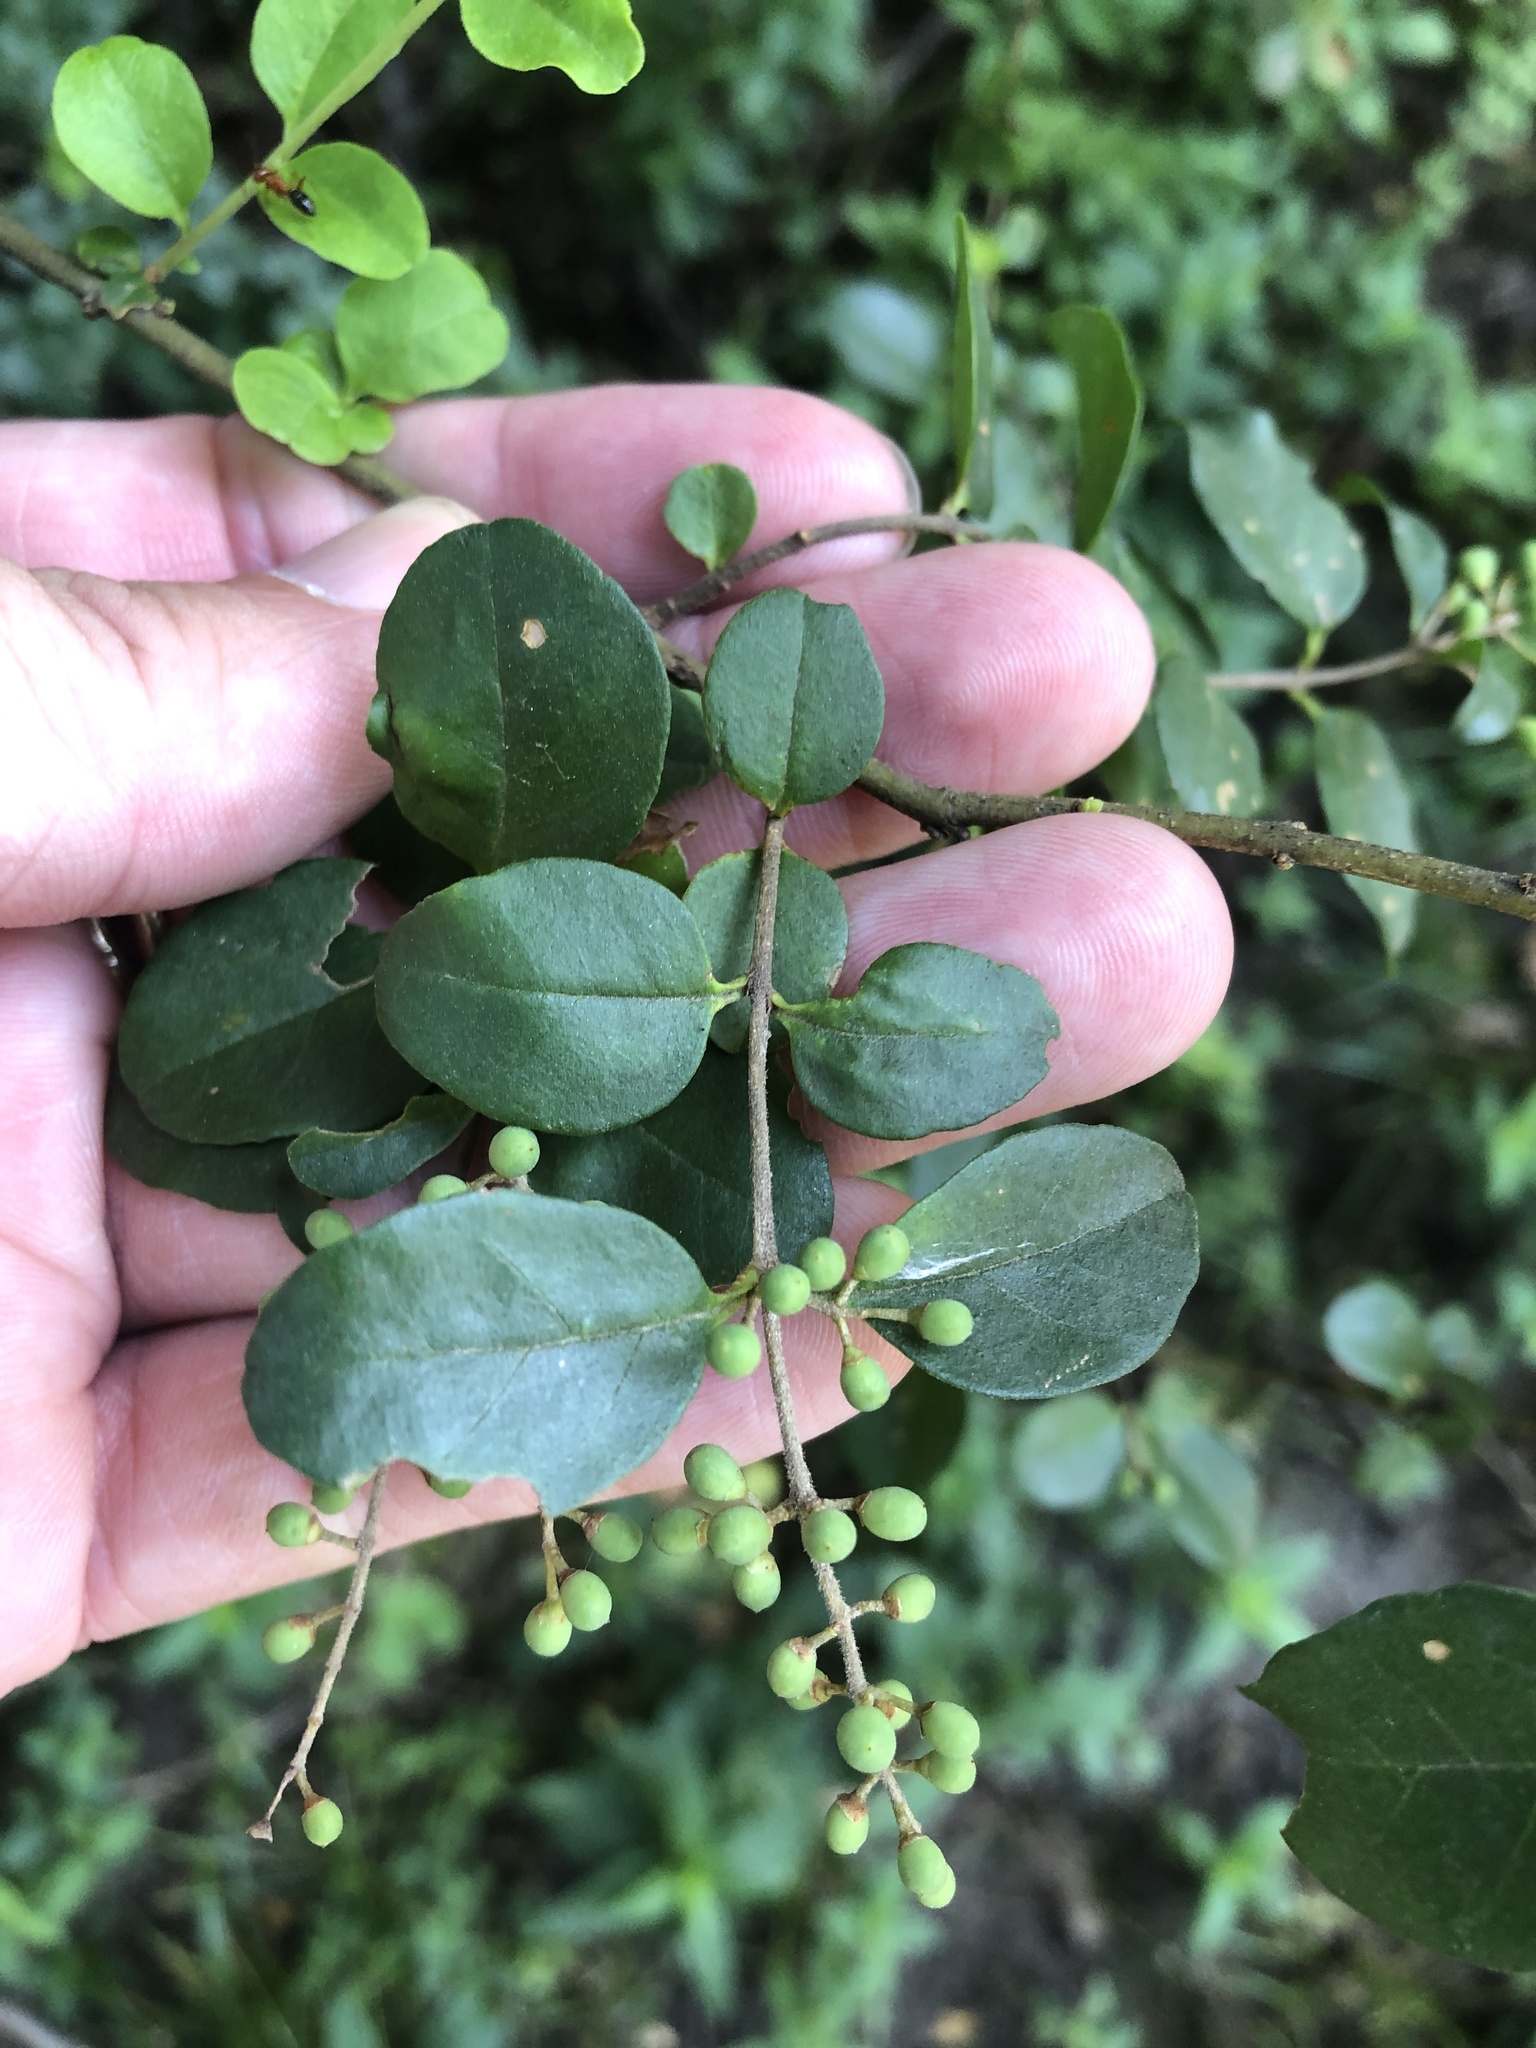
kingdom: Plantae
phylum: Tracheophyta
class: Magnoliopsida
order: Lamiales
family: Oleaceae
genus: Ligustrum
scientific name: Ligustrum sinense
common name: Chinese privet
